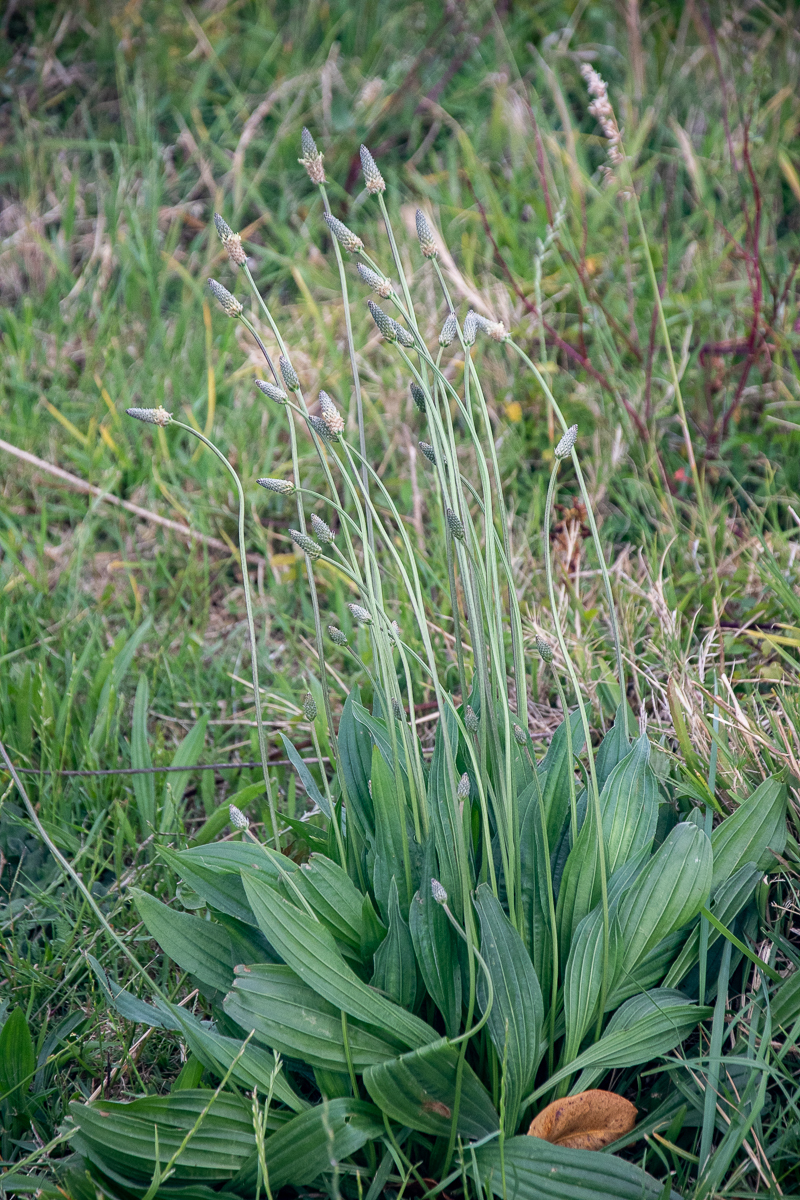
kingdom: Plantae
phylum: Tracheophyta
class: Magnoliopsida
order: Lamiales
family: Plantaginaceae
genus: Plantago
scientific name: Plantago lanceolata
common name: Ribwort plantain
